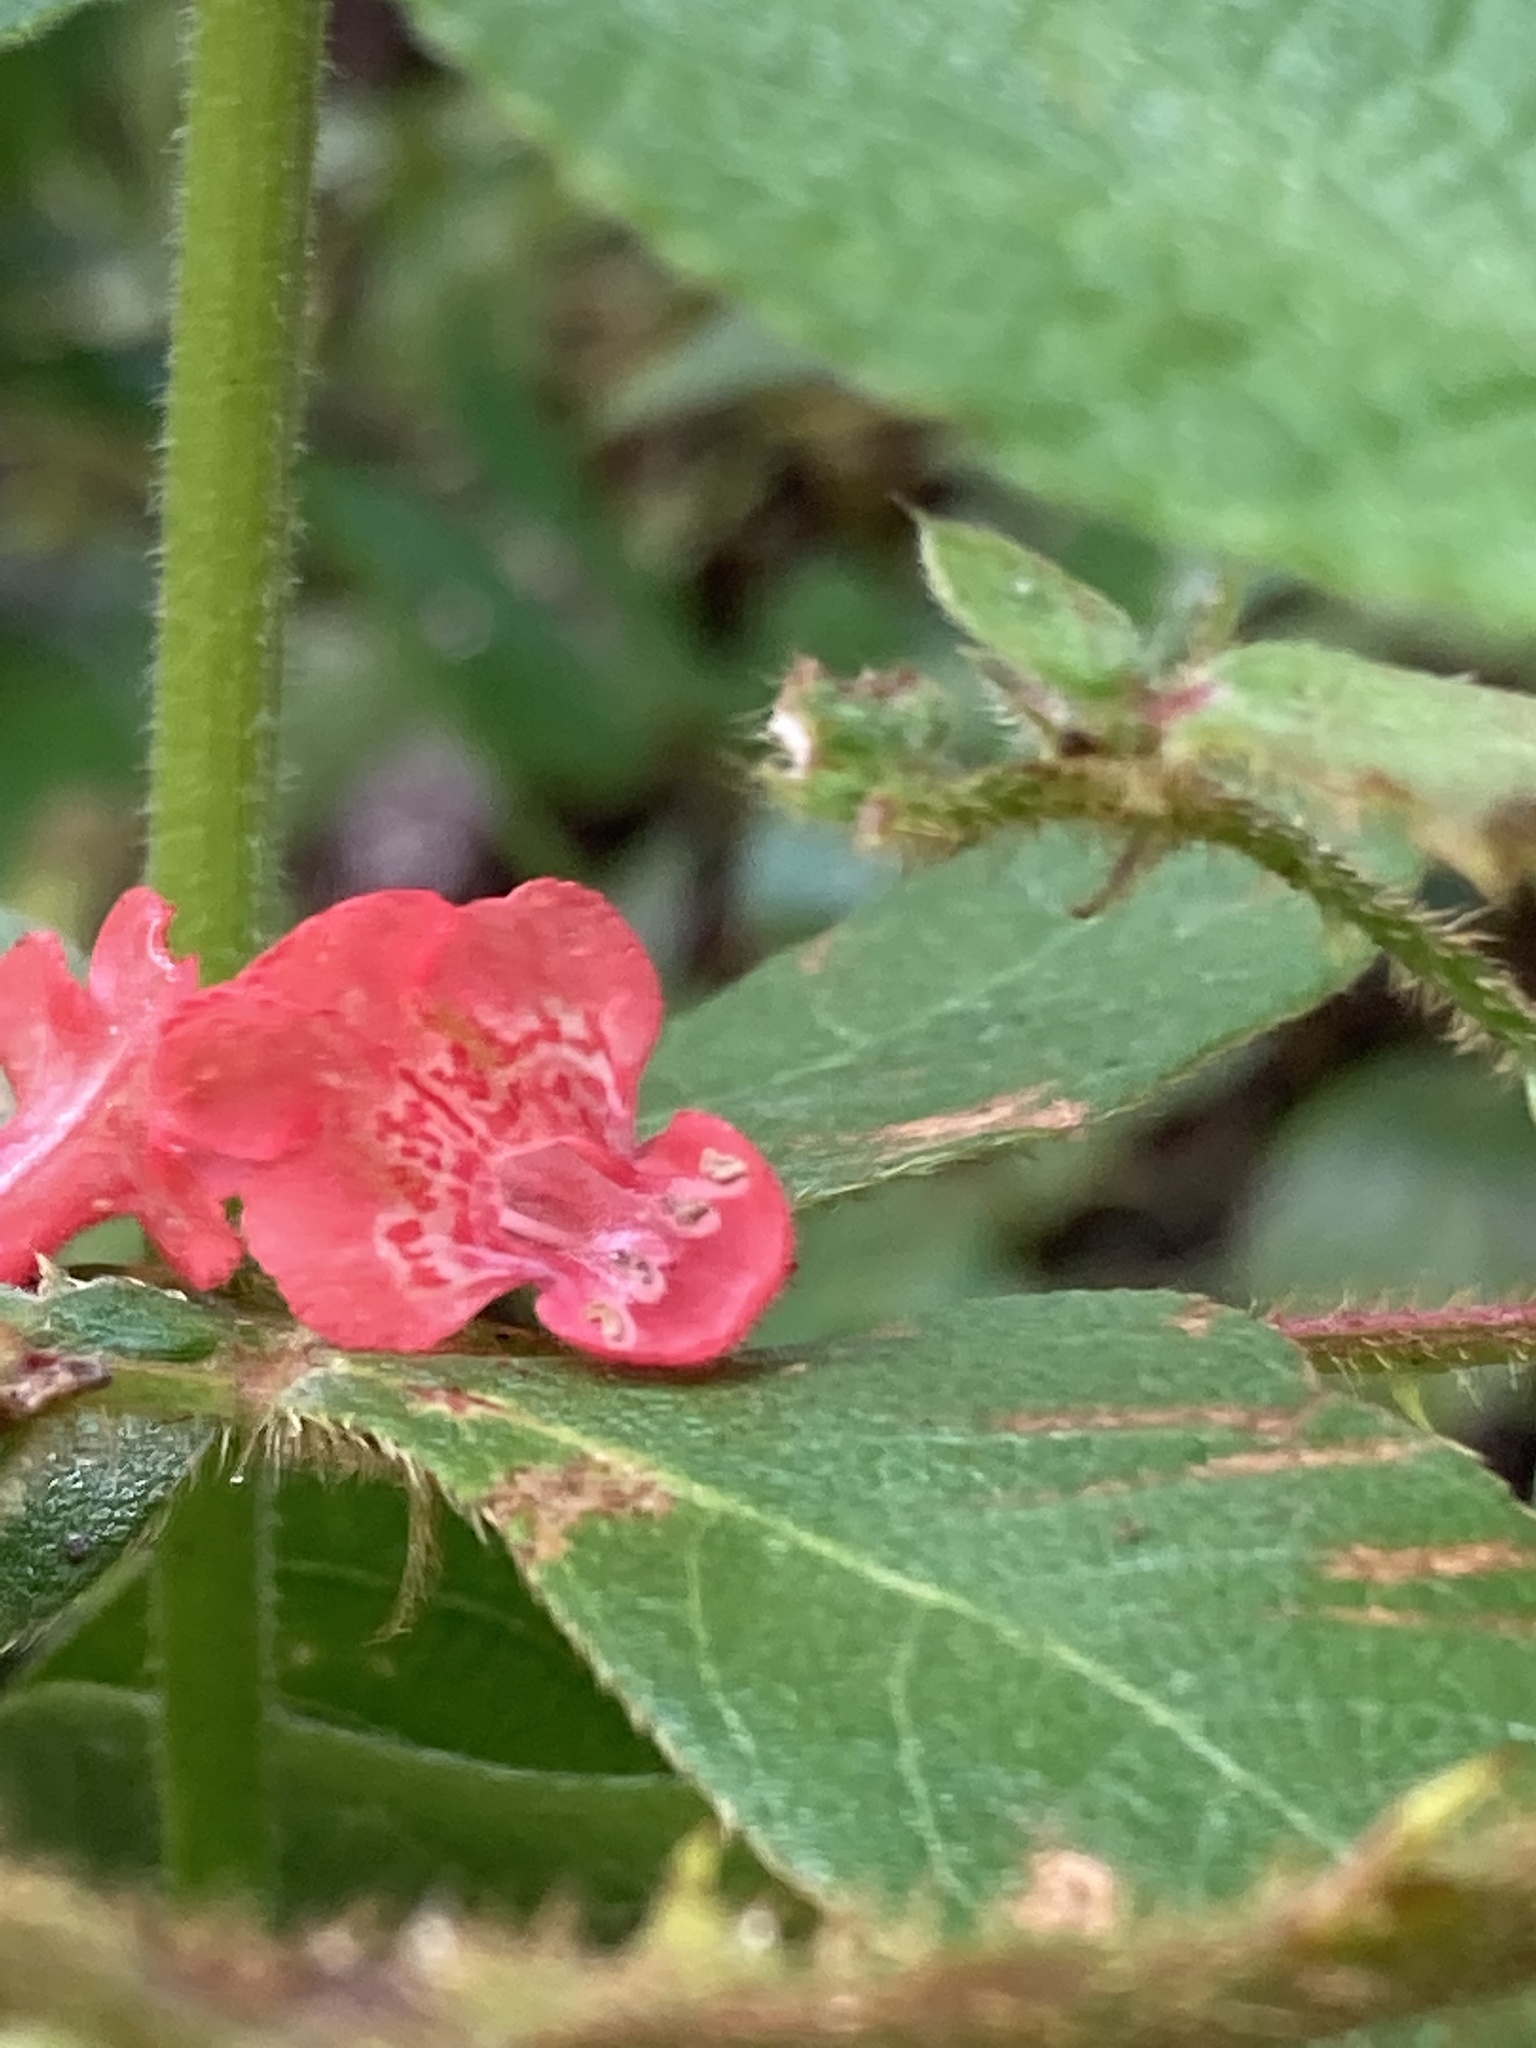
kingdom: Plantae
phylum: Tracheophyta
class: Magnoliopsida
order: Lamiales
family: Lamiaceae
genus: Stachys
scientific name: Stachys coccinea
